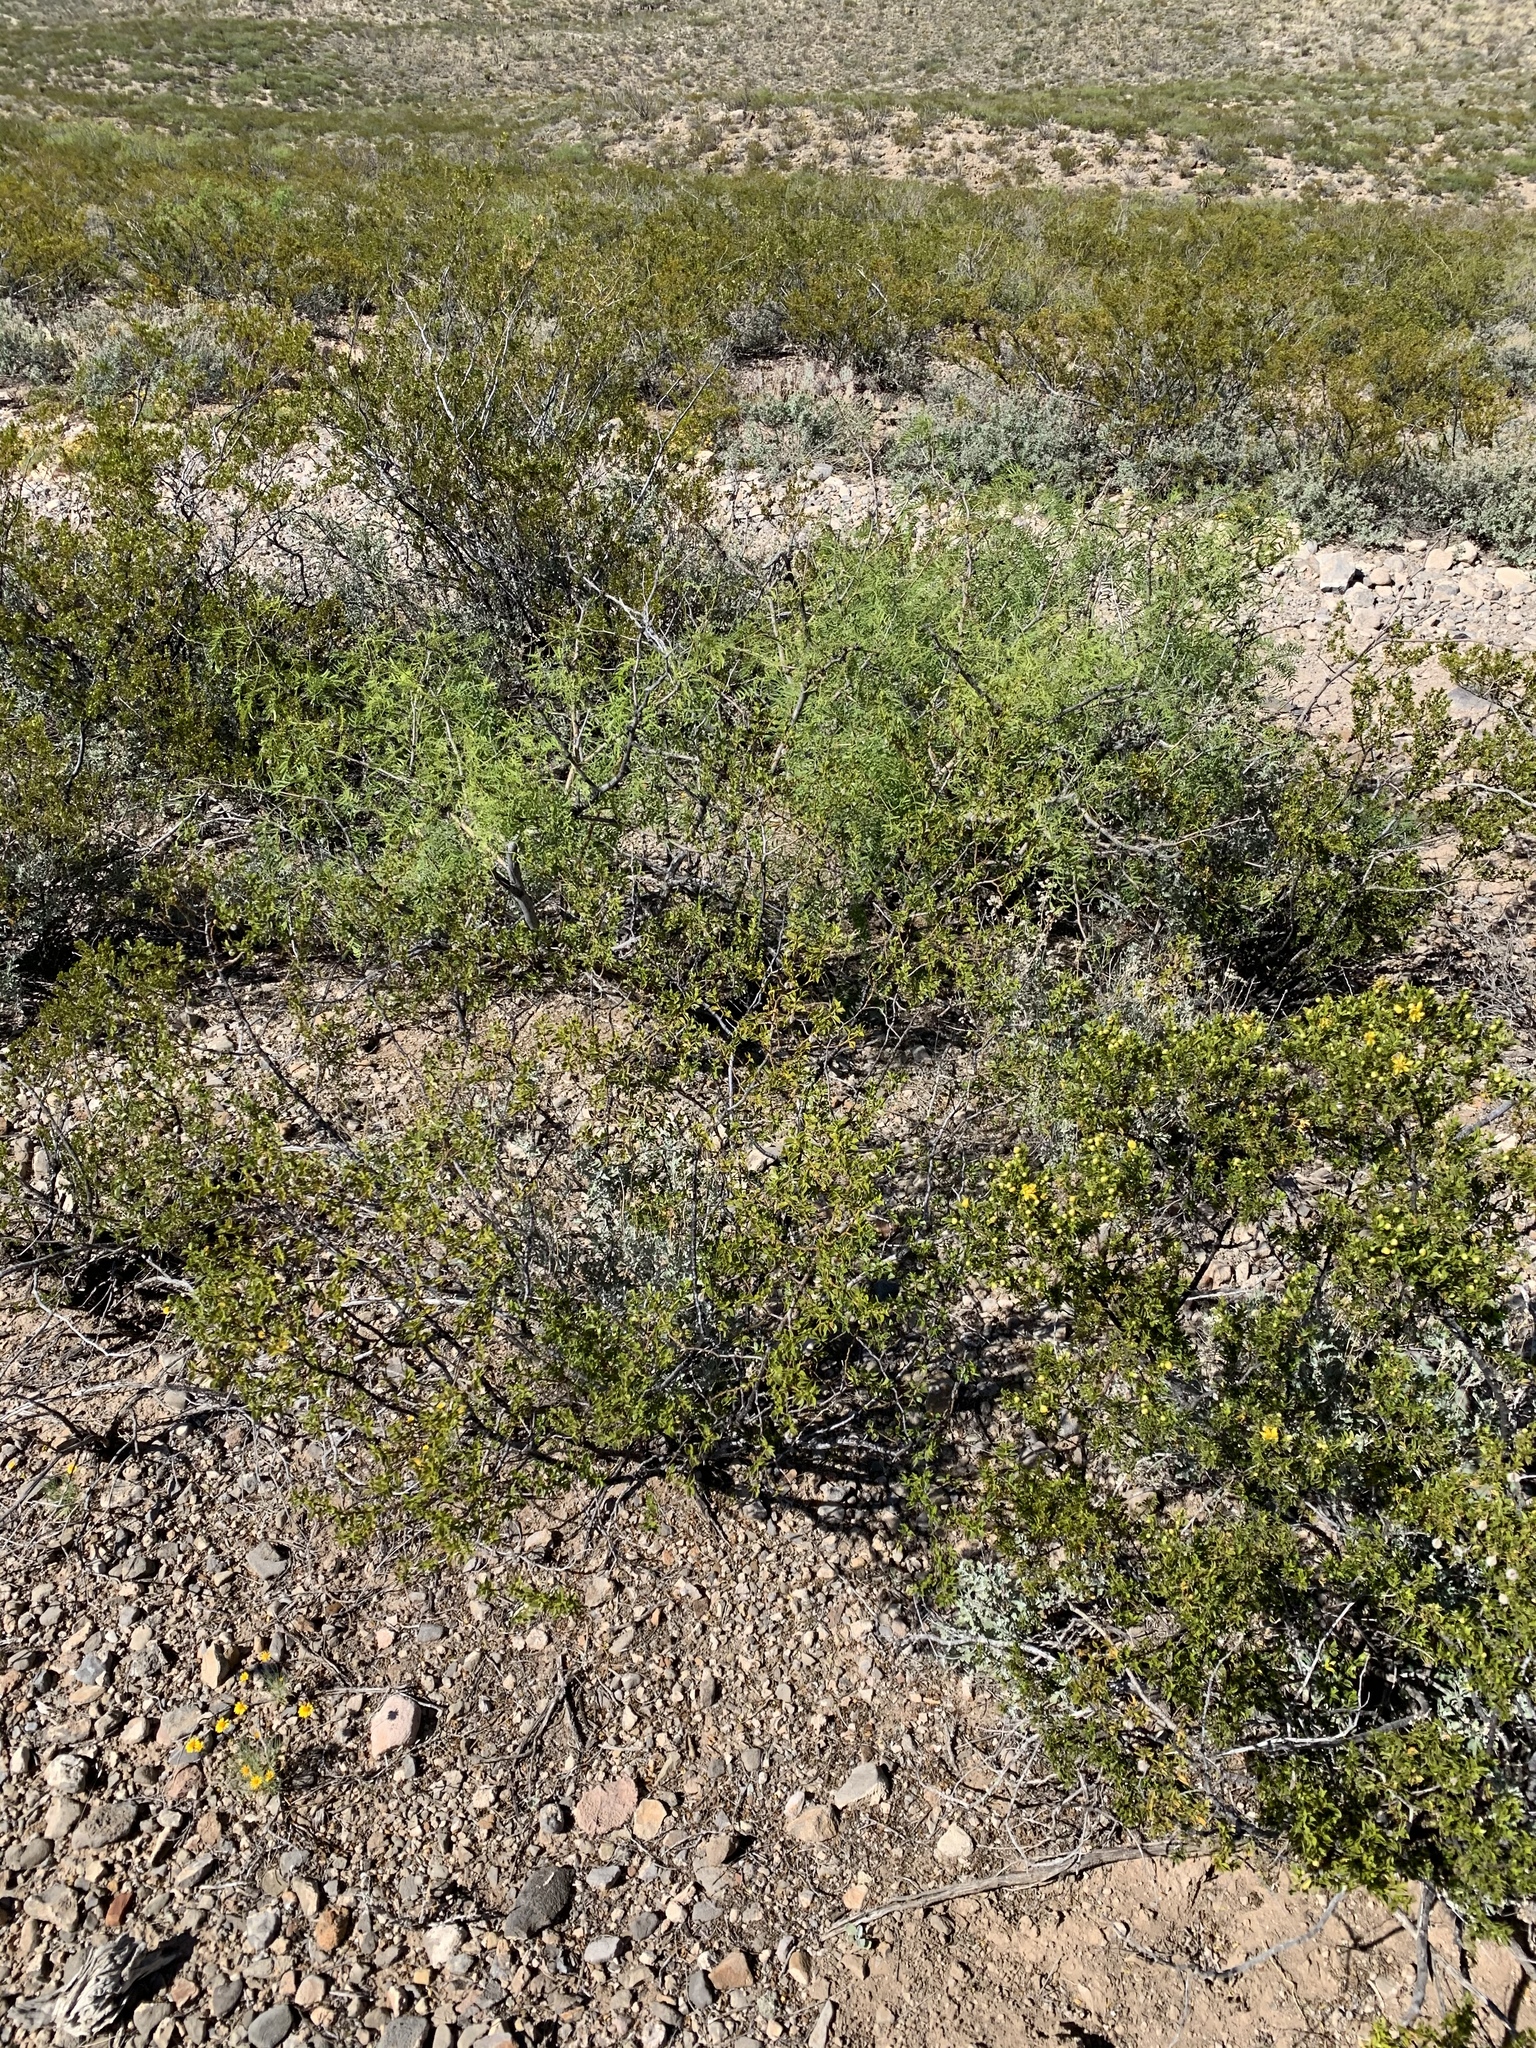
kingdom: Plantae
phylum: Tracheophyta
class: Magnoliopsida
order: Zygophyllales
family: Zygophyllaceae
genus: Larrea
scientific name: Larrea tridentata
